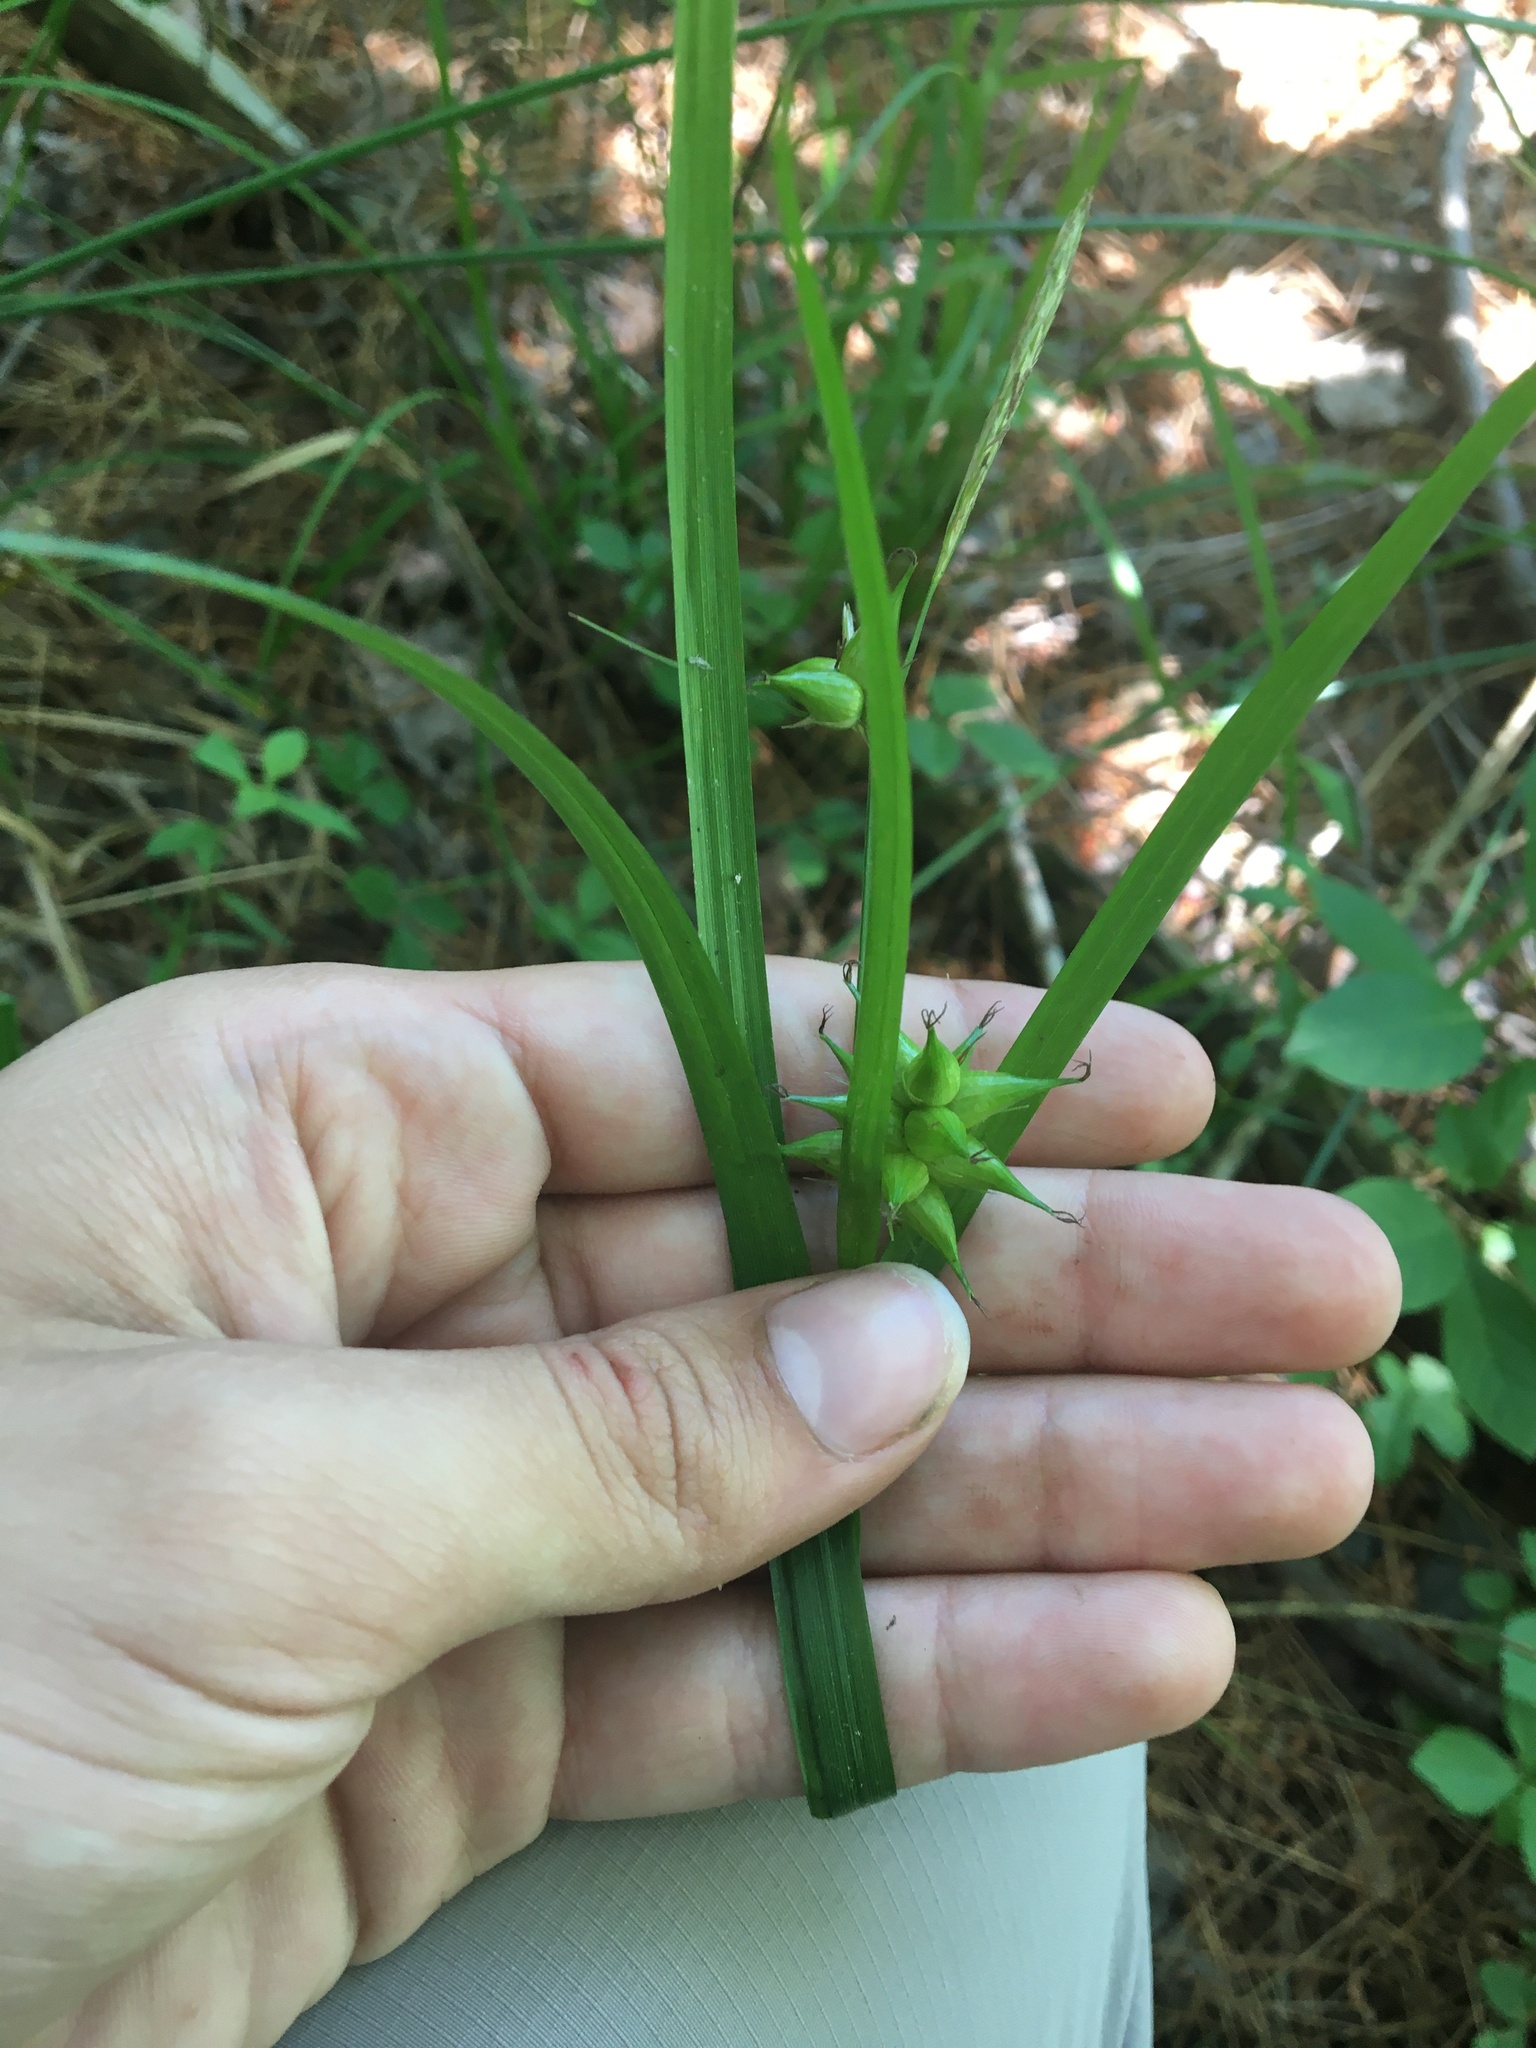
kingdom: Plantae
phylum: Tracheophyta
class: Liliopsida
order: Poales
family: Cyperaceae
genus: Carex
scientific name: Carex intumescens
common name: Greater bladder sedge
